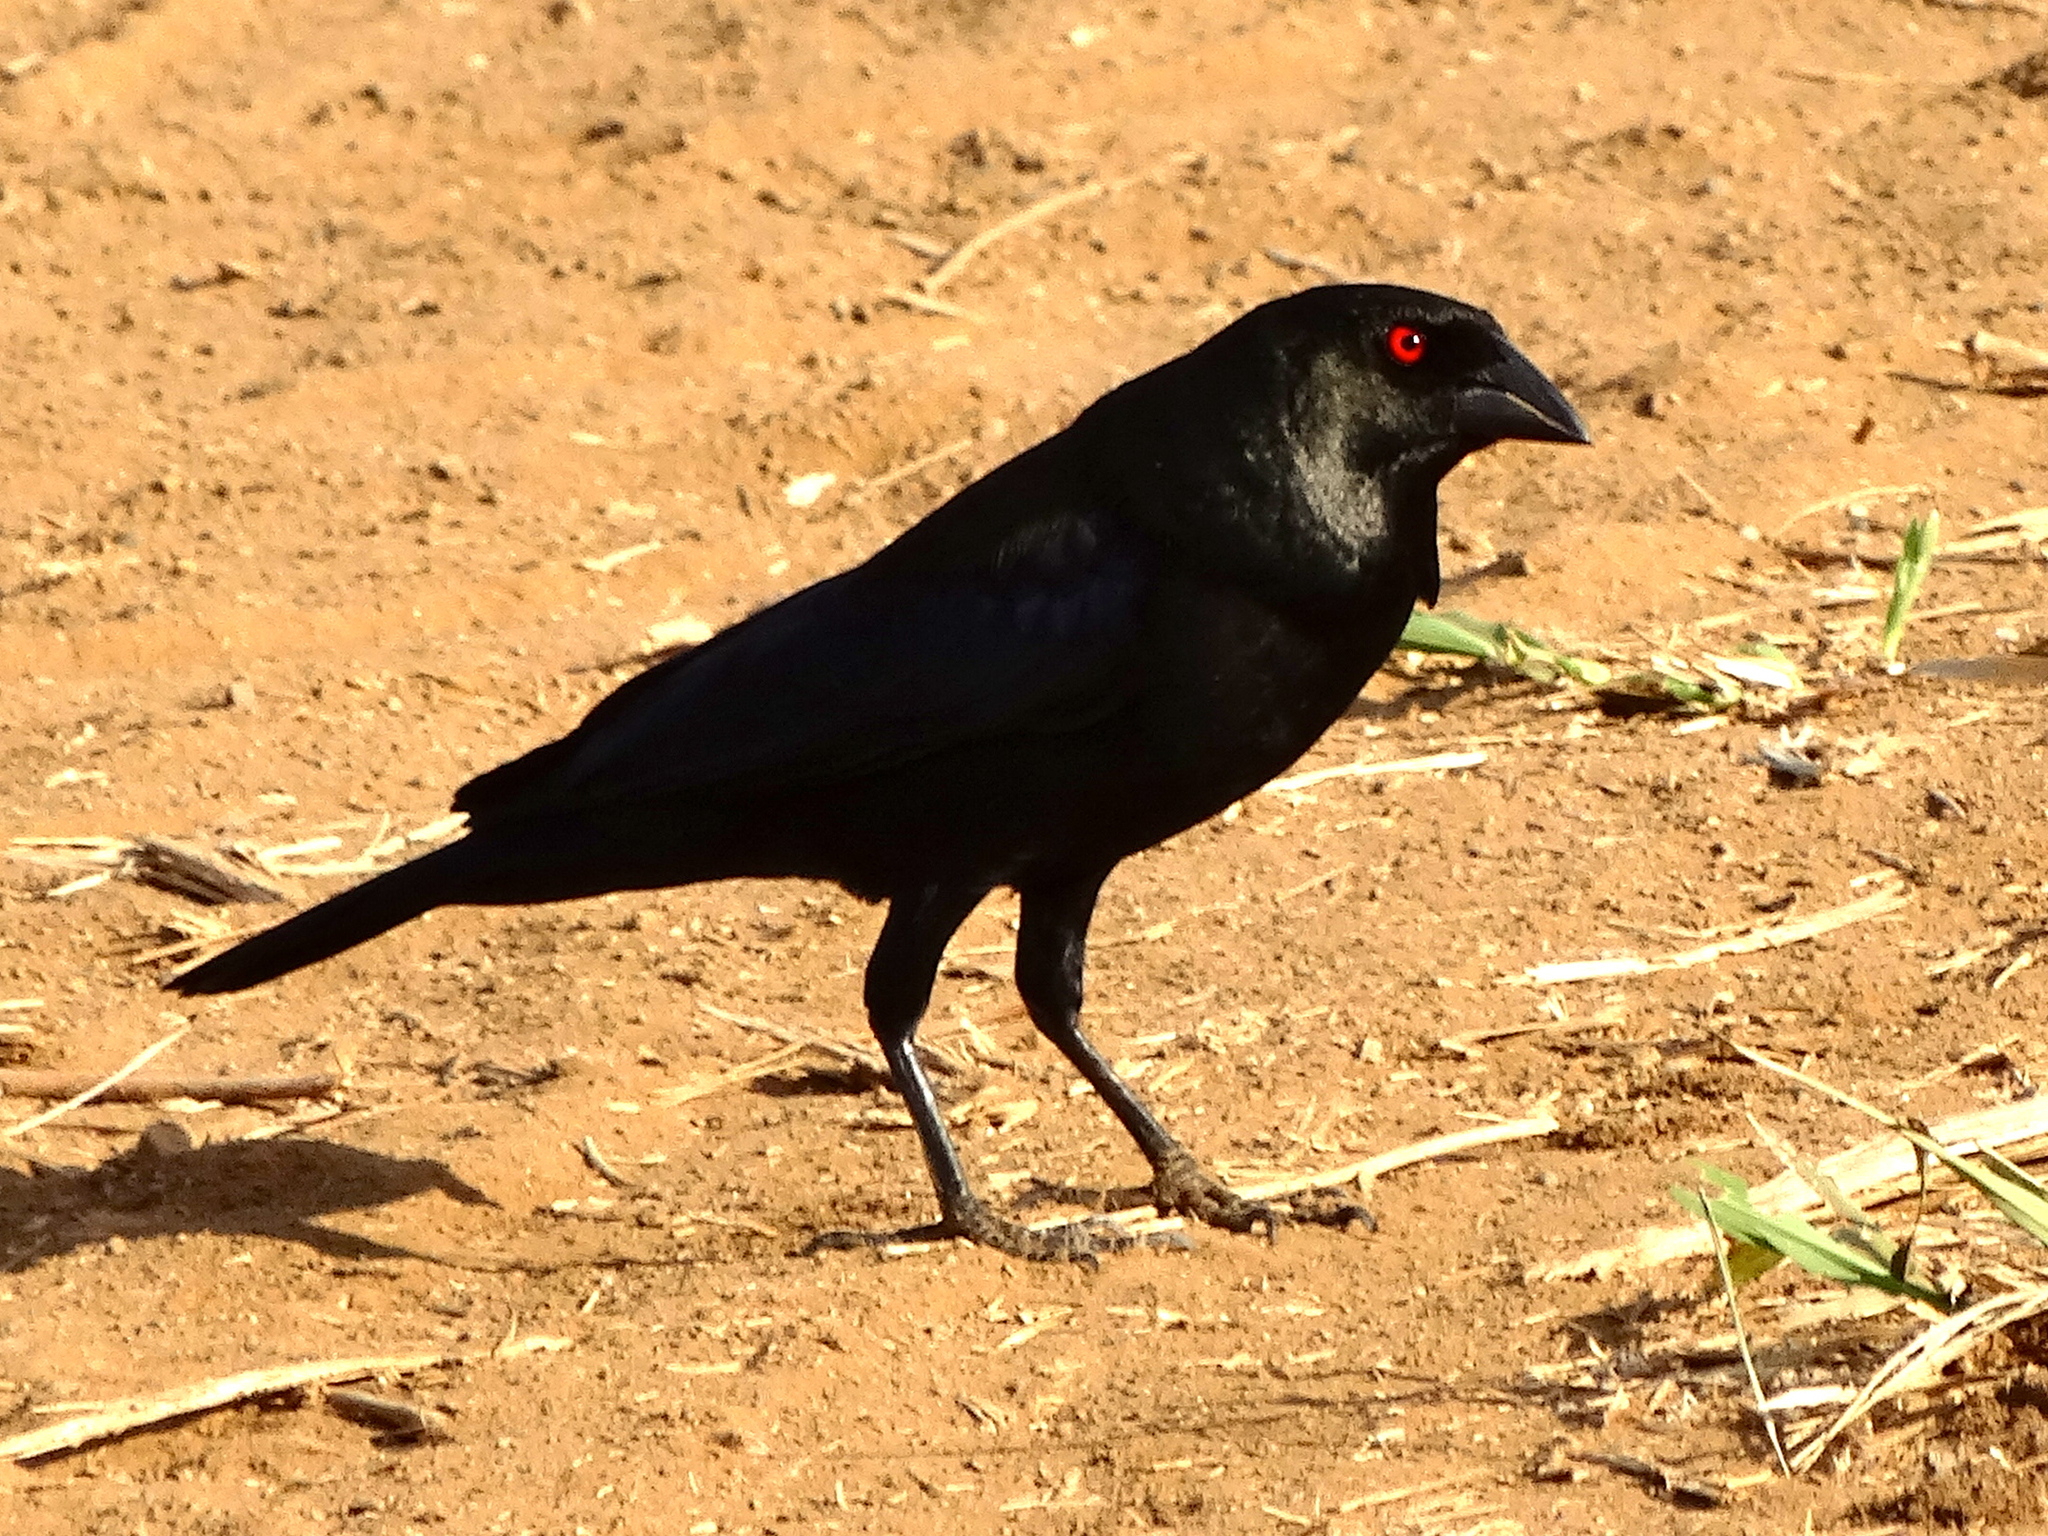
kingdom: Animalia
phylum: Chordata
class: Aves
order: Passeriformes
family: Icteridae
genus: Molothrus
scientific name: Molothrus aeneus
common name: Bronzed cowbird
